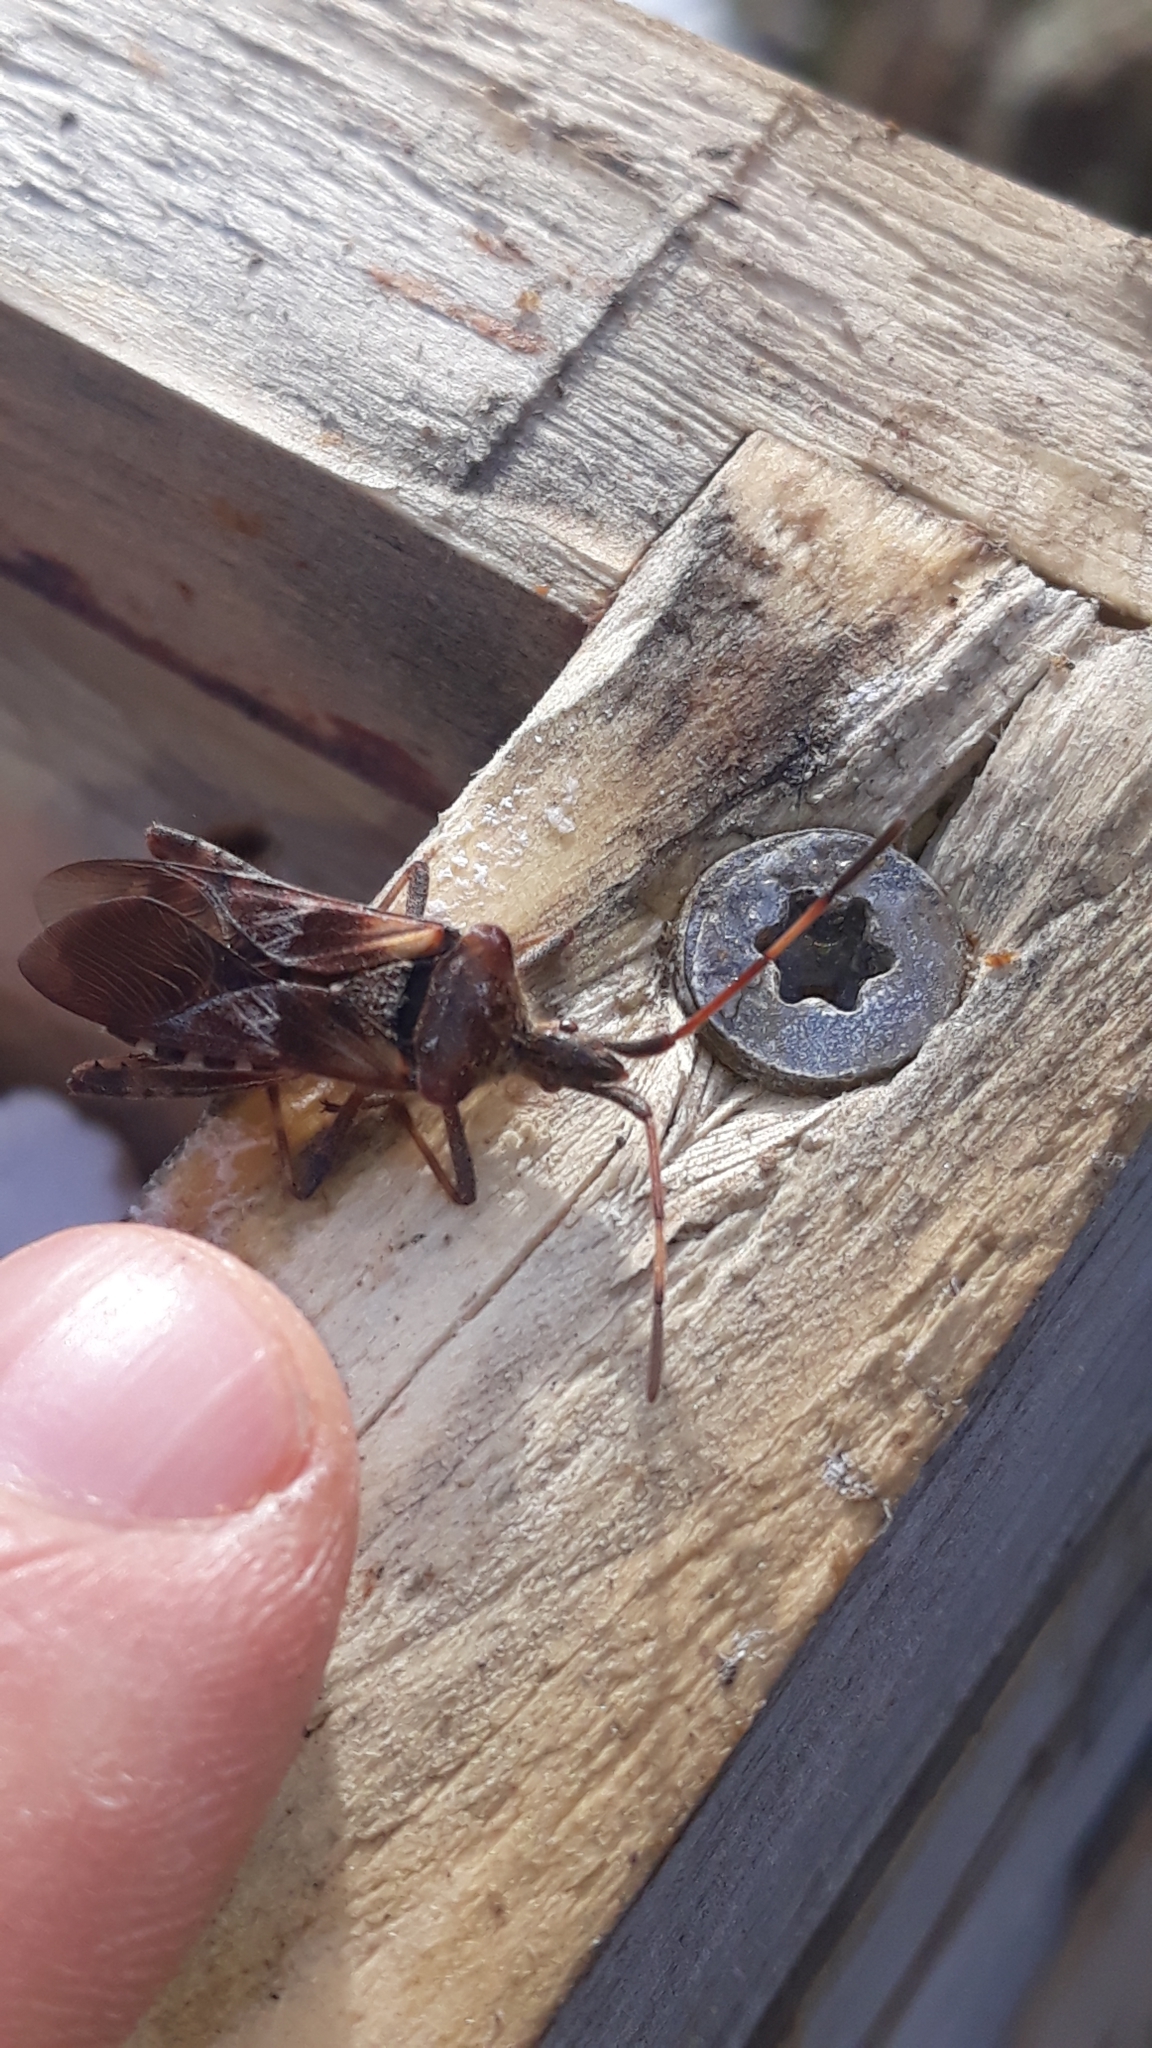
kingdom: Animalia
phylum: Arthropoda
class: Insecta
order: Hemiptera
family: Coreidae
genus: Leptoglossus
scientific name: Leptoglossus occidentalis
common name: Western conifer-seed bug
